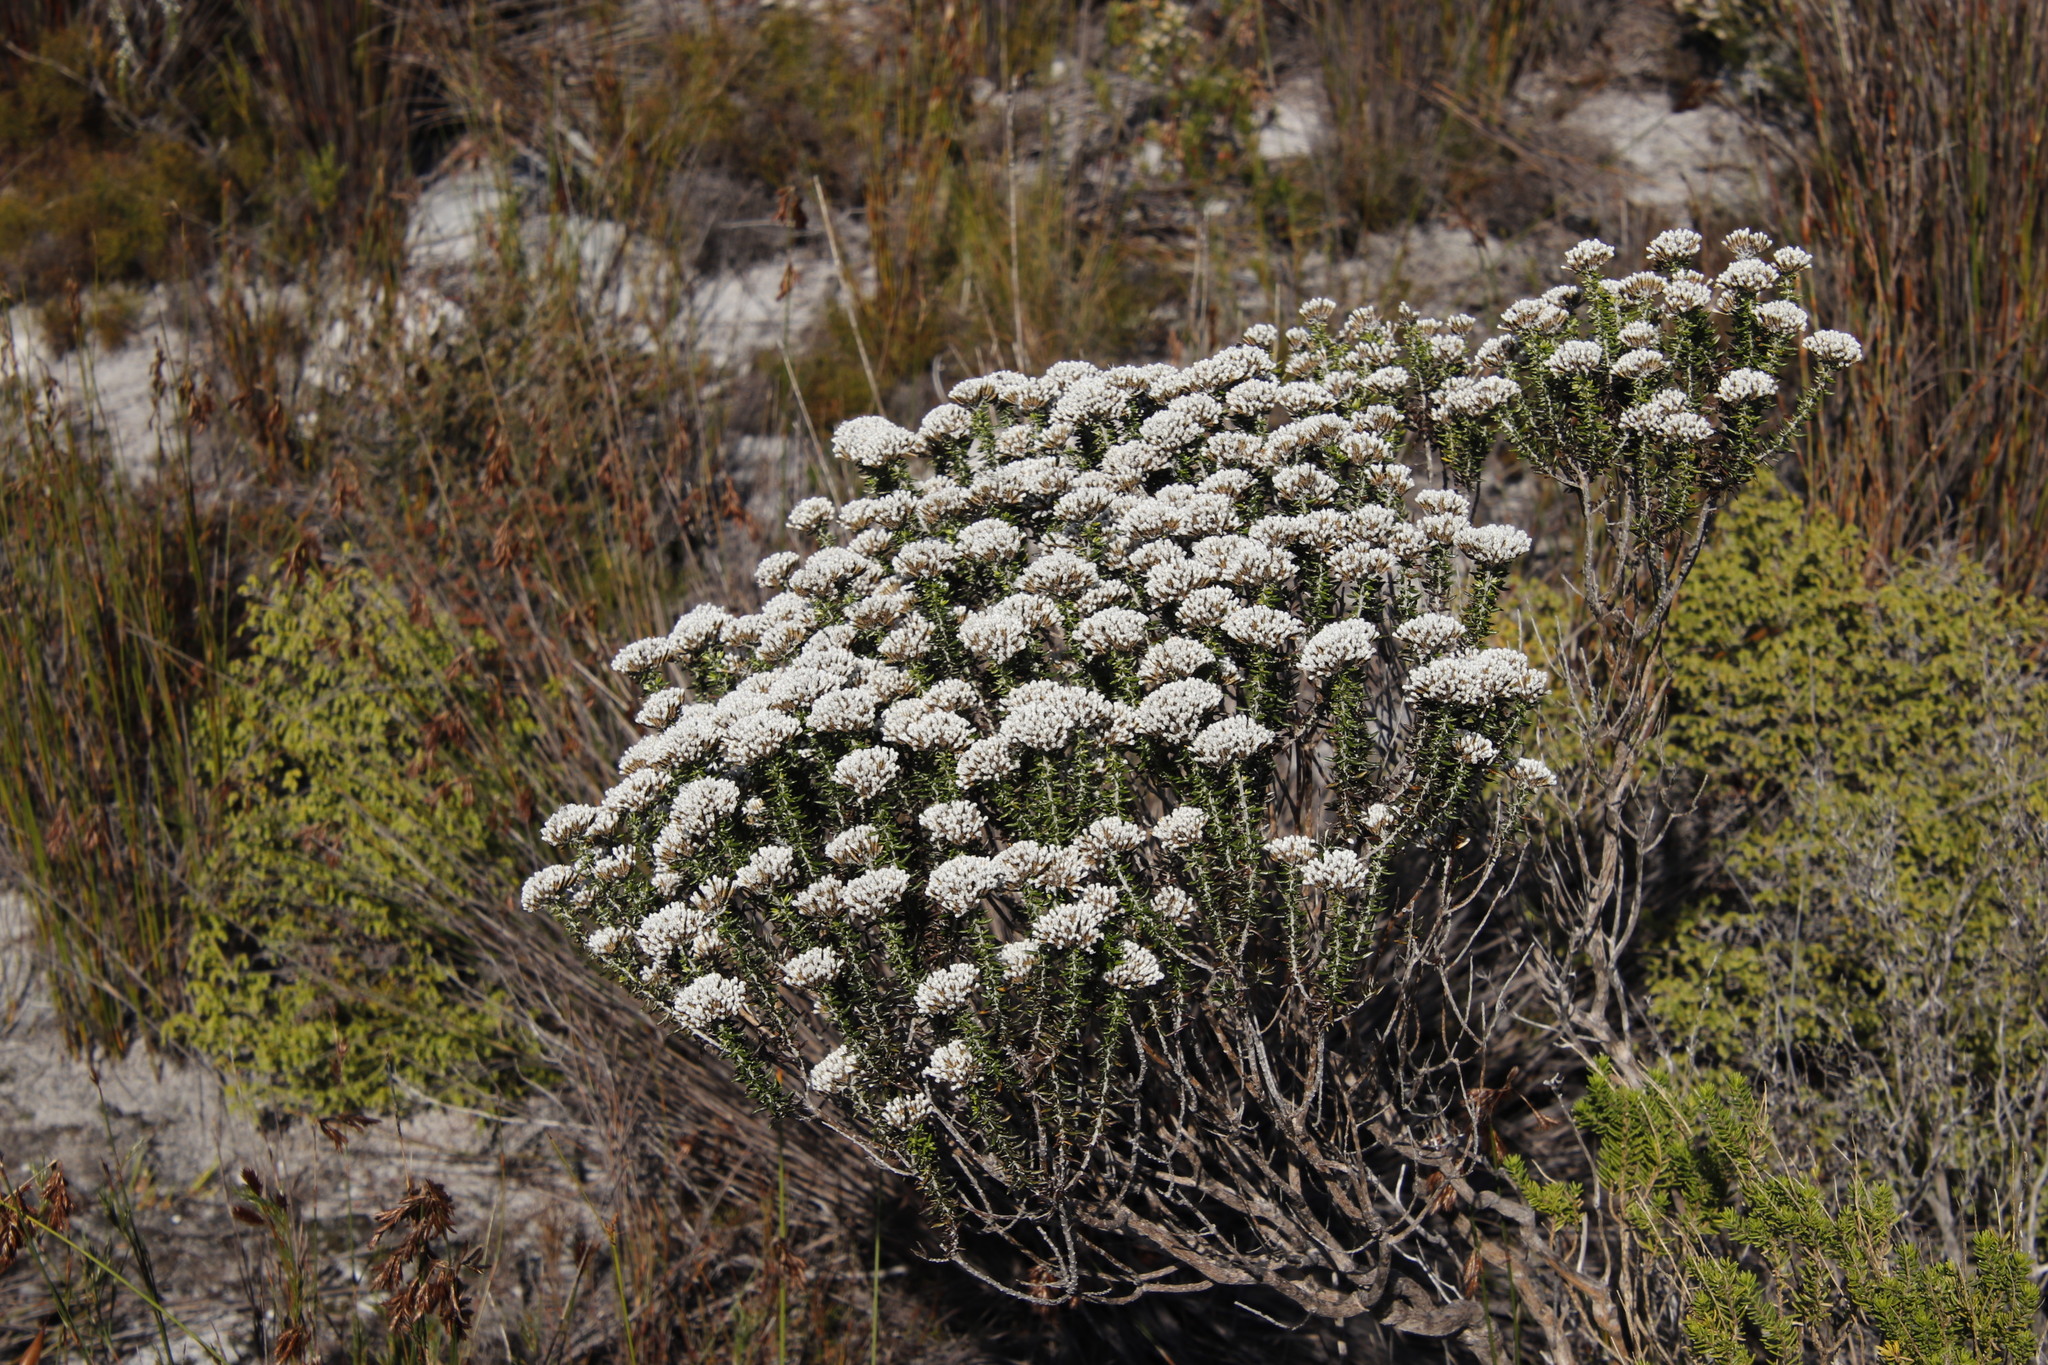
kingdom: Plantae
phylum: Tracheophyta
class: Magnoliopsida
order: Asterales
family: Asteraceae
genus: Metalasia
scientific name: Metalasia densa
